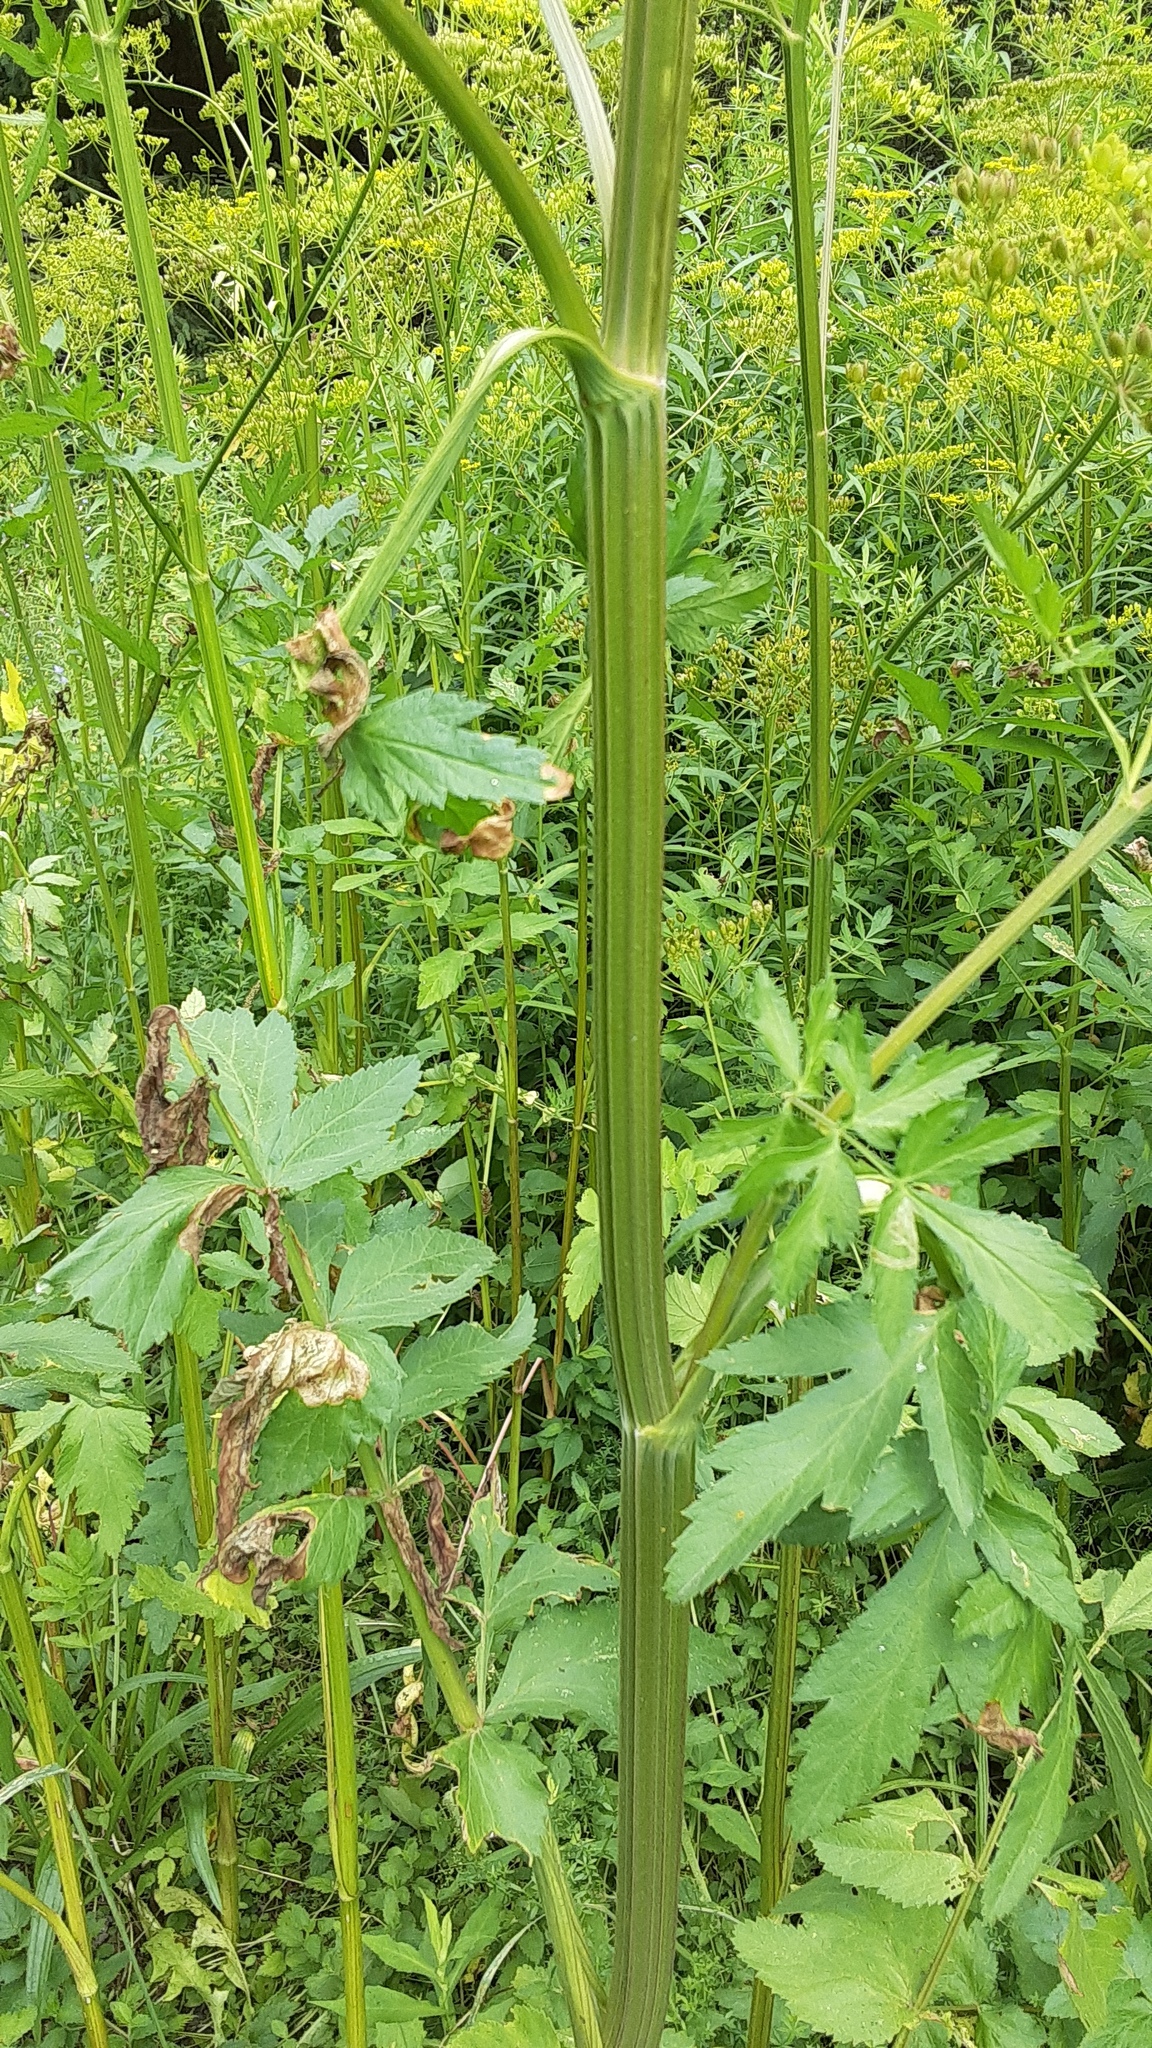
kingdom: Plantae
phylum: Tracheophyta
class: Magnoliopsida
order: Apiales
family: Apiaceae
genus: Pastinaca
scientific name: Pastinaca sativa
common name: Wild parsnip
